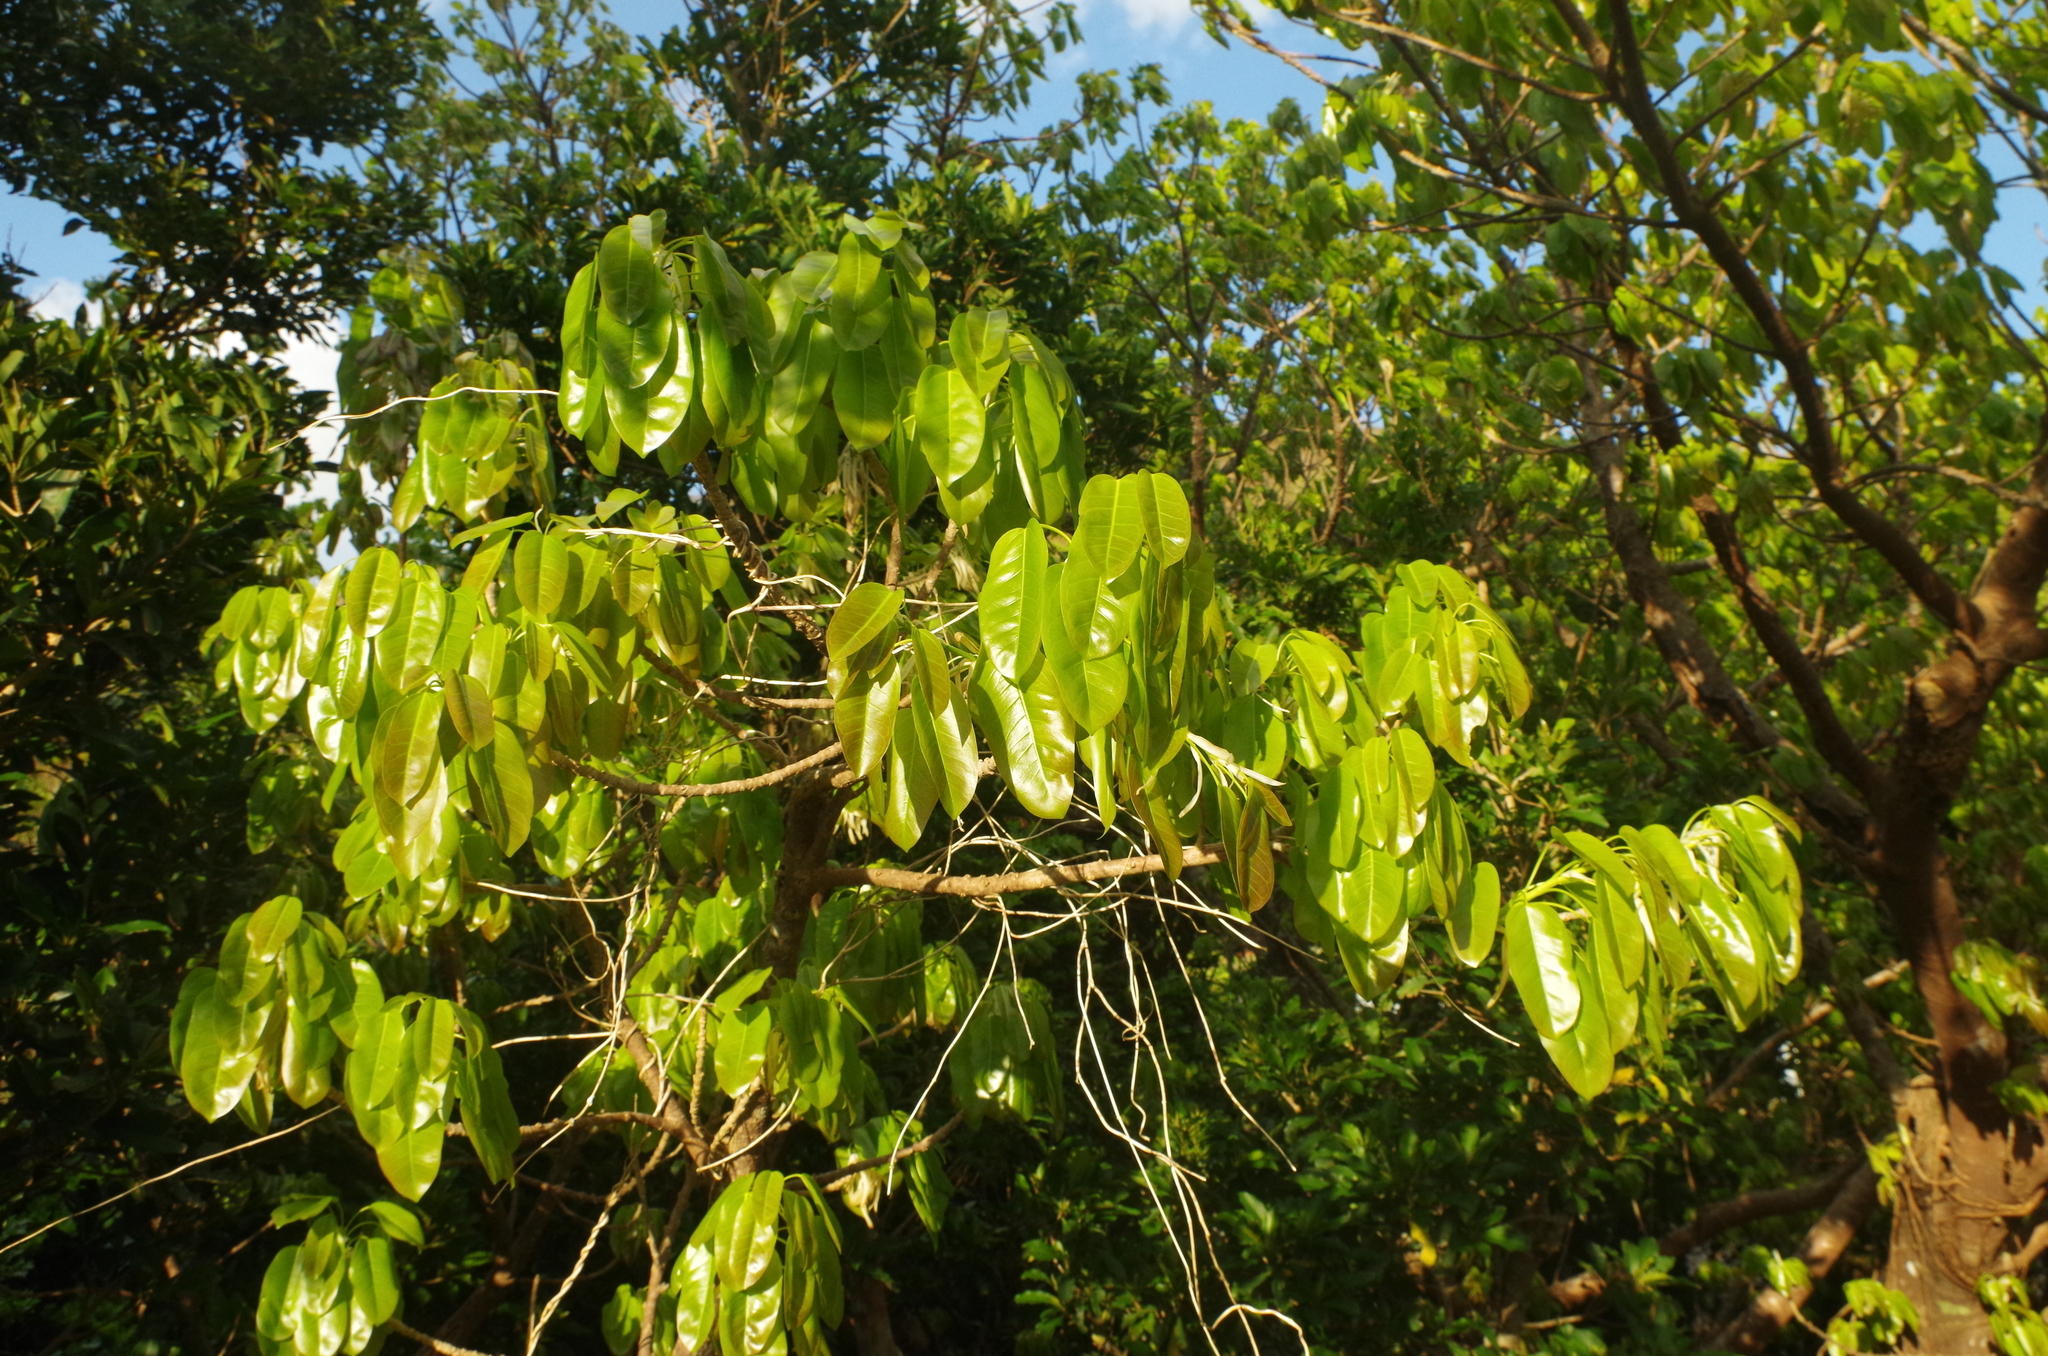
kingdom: Plantae
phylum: Tracheophyta
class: Magnoliopsida
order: Rosales
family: Moraceae
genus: Ficus
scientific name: Ficus subpisocarpa
